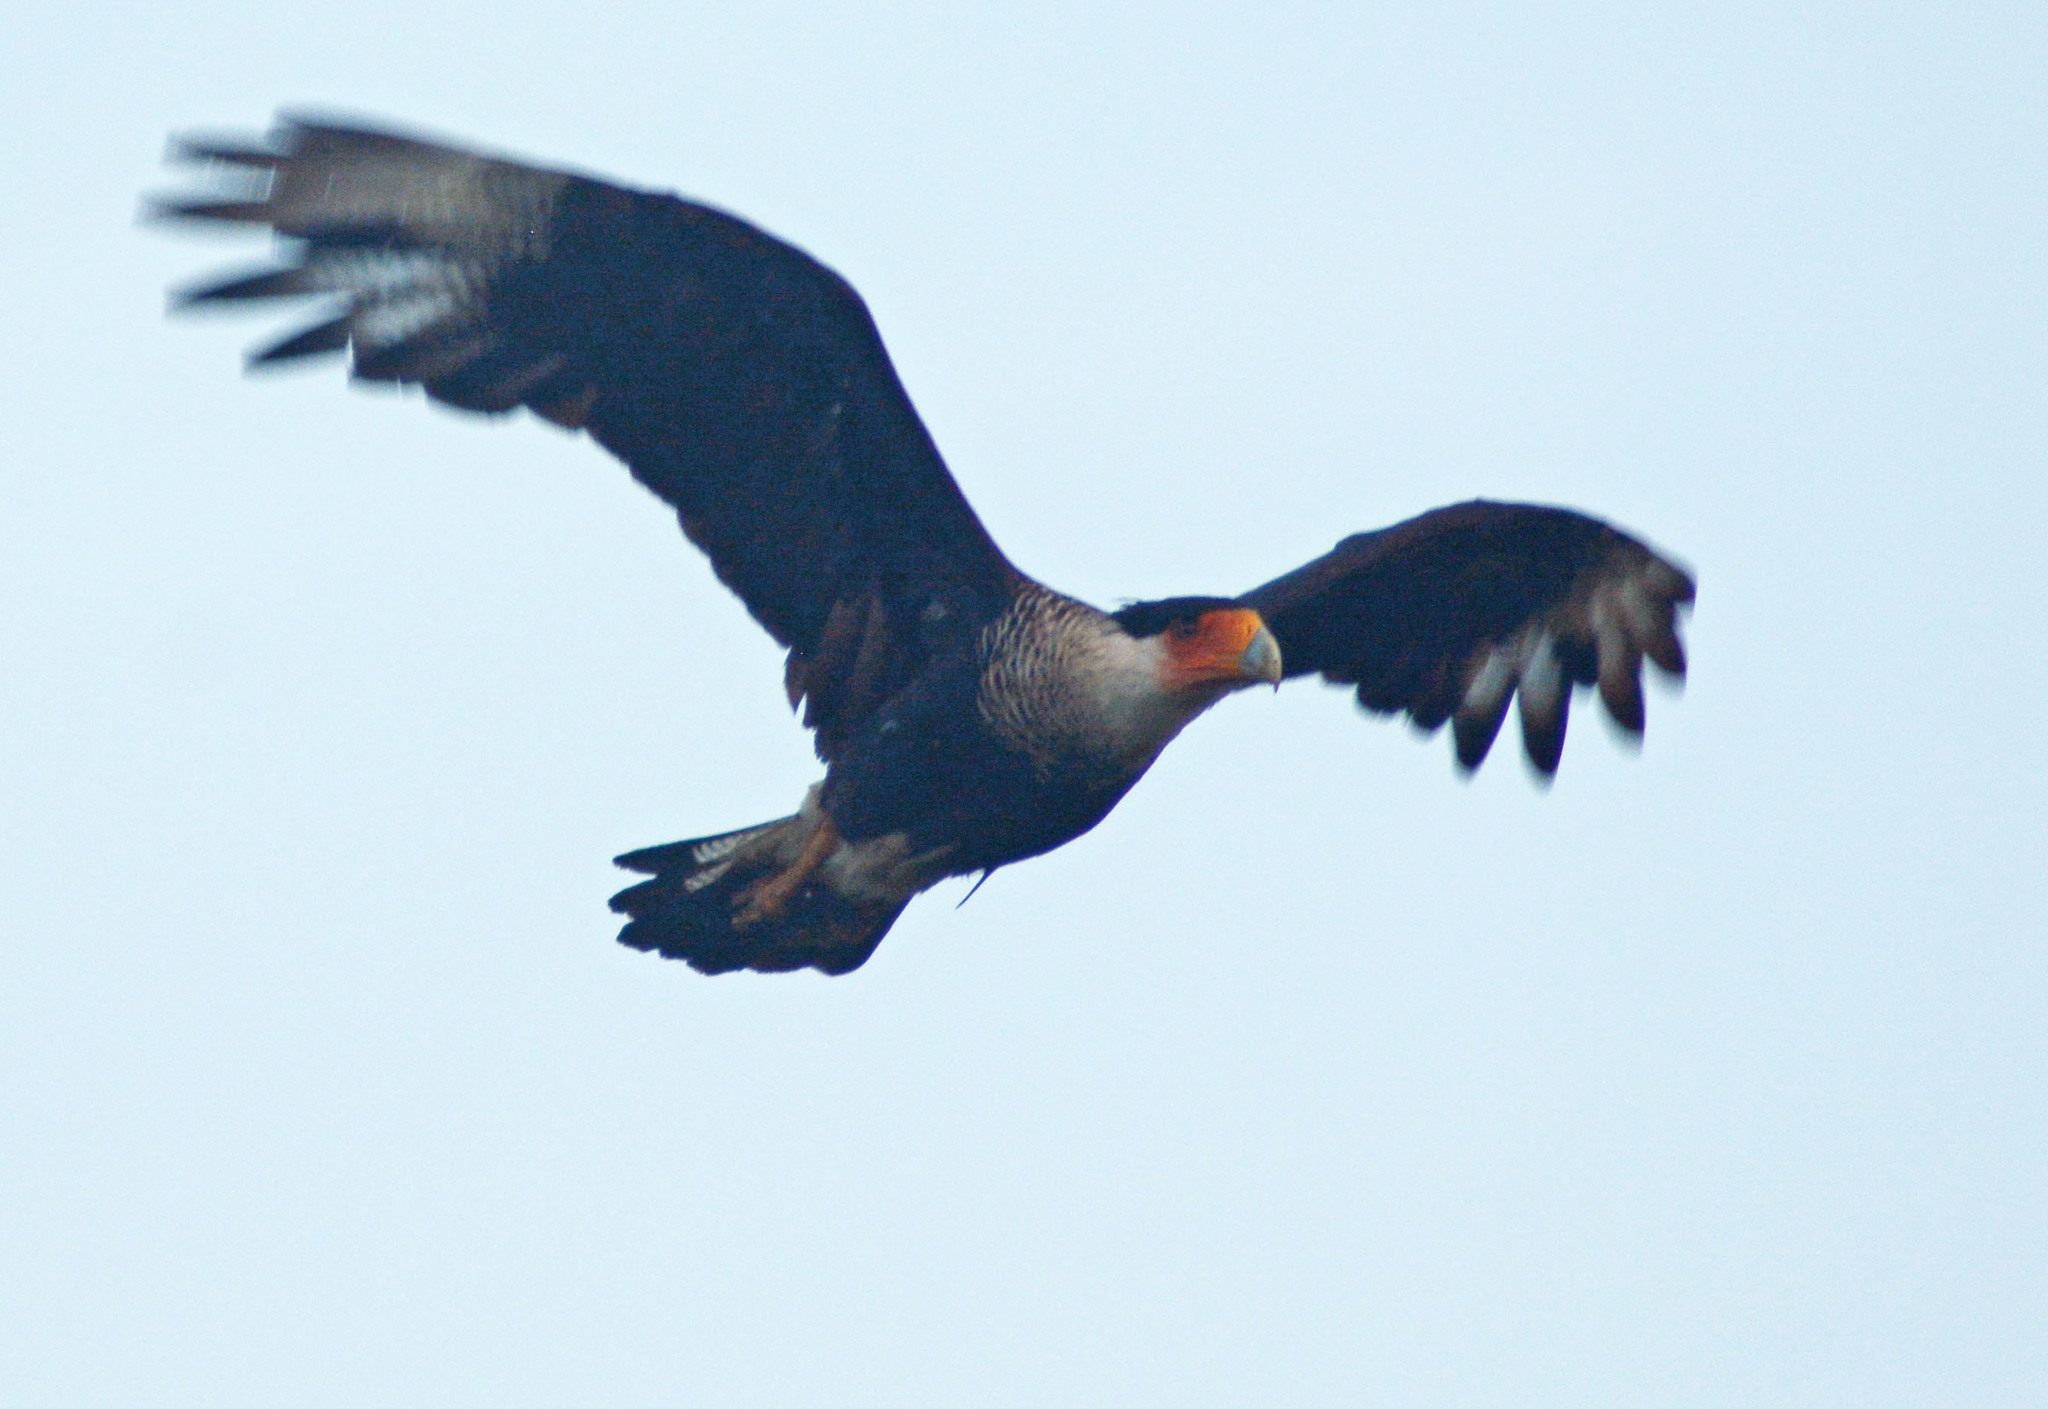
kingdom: Animalia
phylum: Chordata
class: Aves
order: Falconiformes
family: Falconidae
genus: Caracara
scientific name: Caracara plancus
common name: Southern caracara
